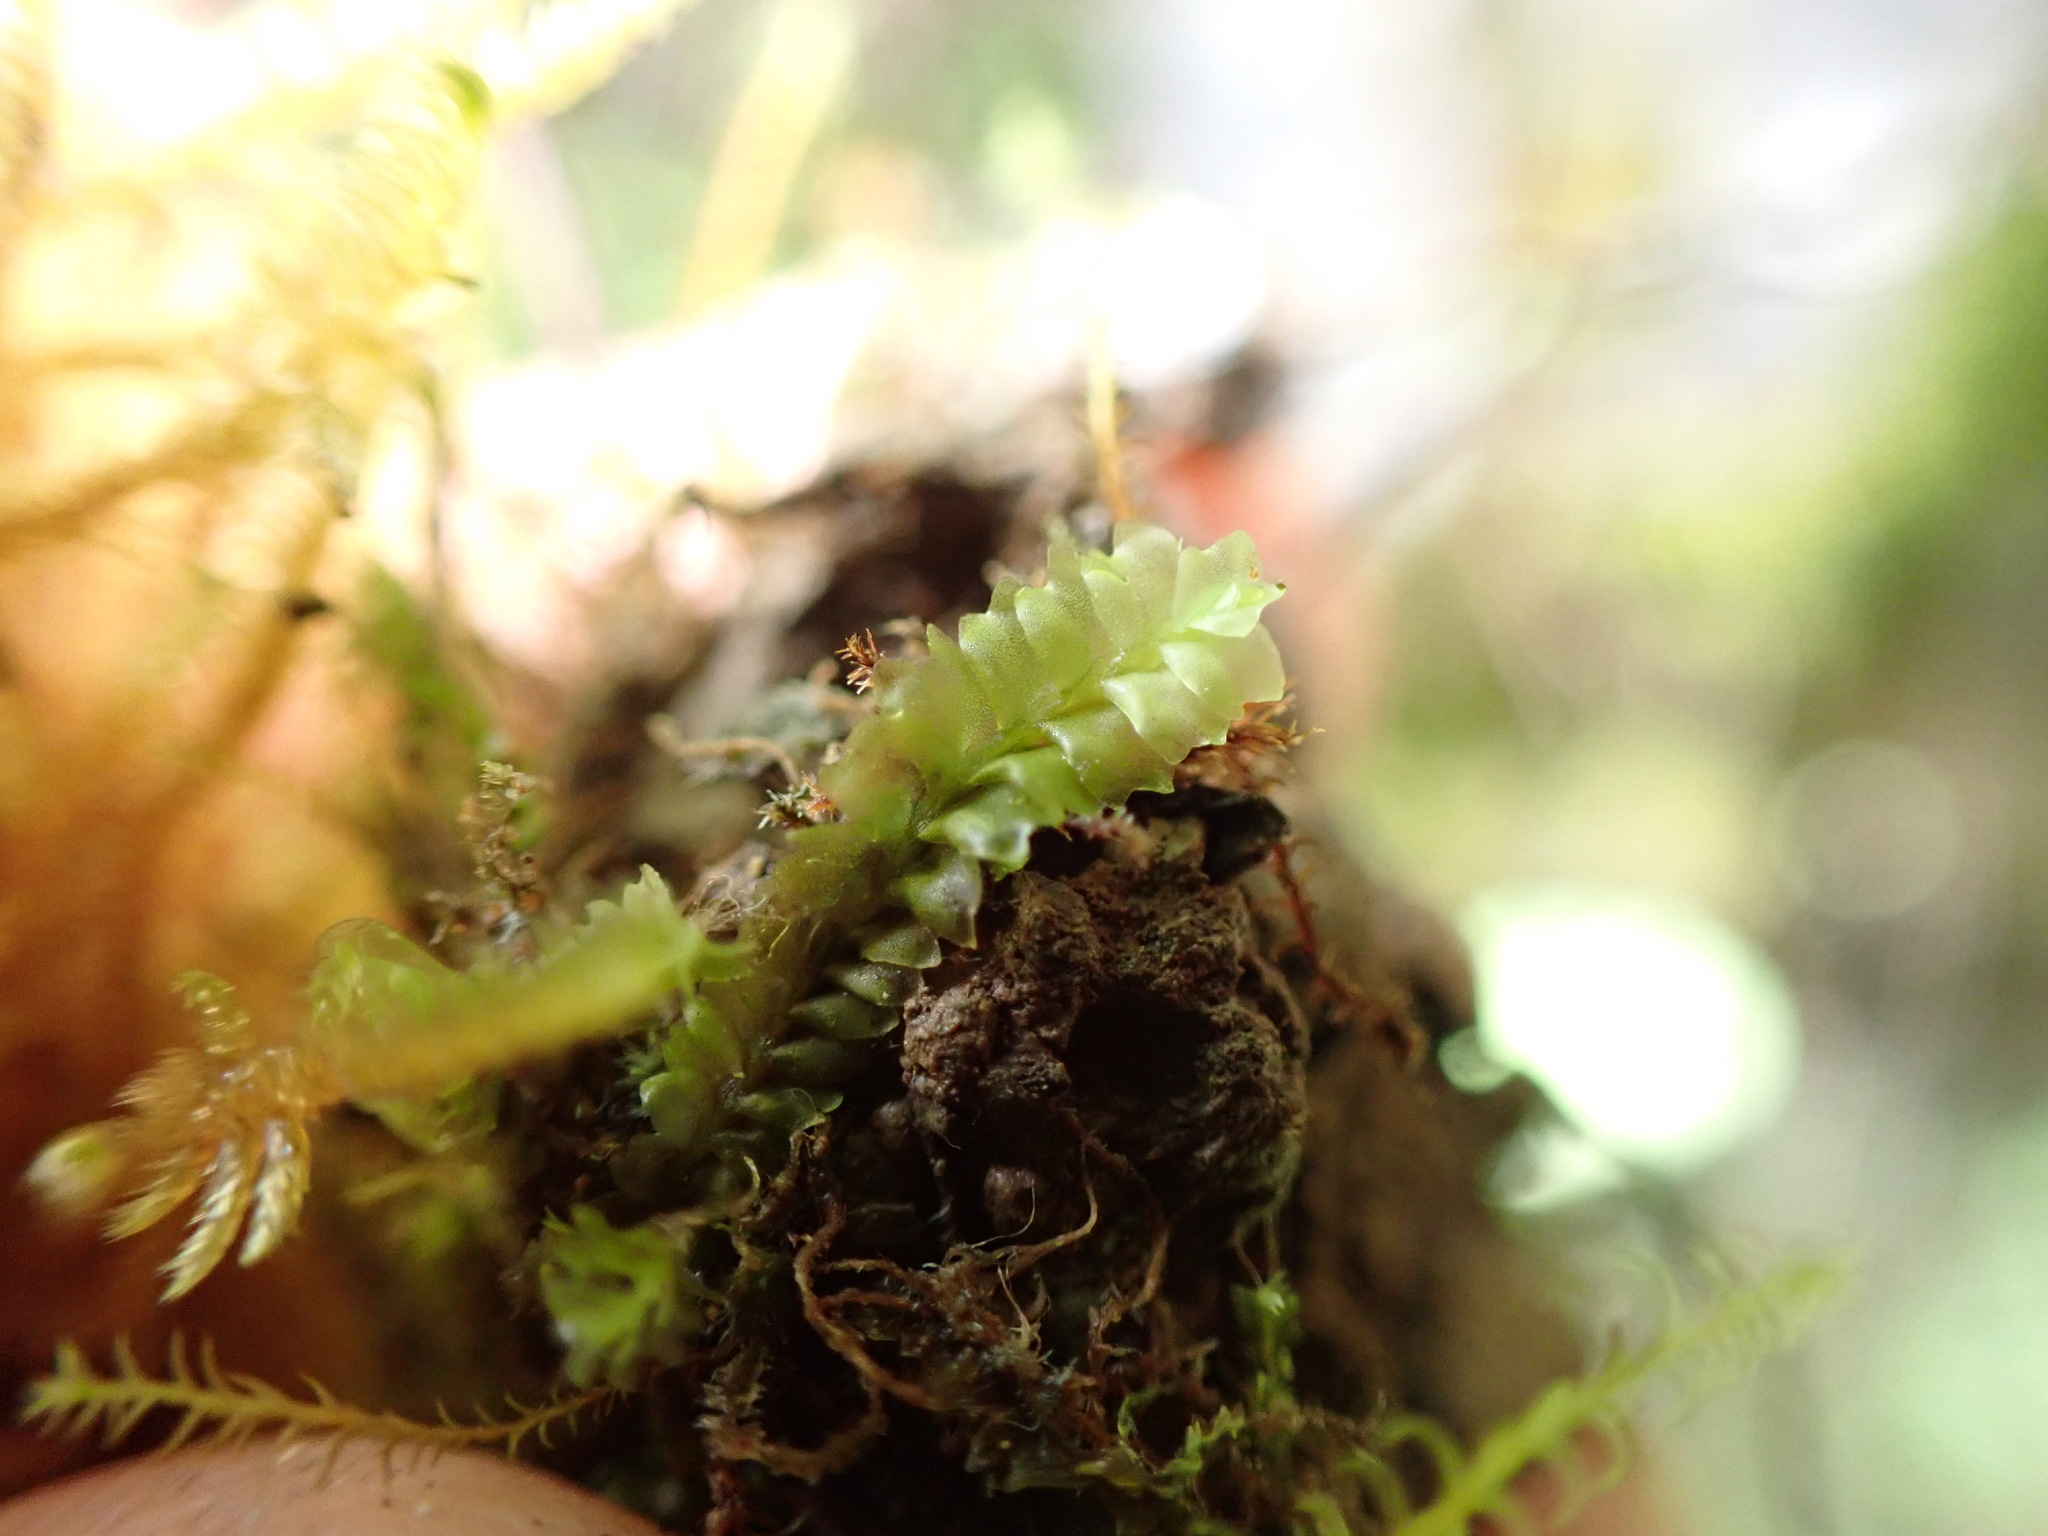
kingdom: Plantae
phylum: Marchantiophyta
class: Jungermanniopsida
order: Jungermanniales
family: Jungermanniaceae
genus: Mesoptychia
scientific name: Mesoptychia gillmanii
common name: Gillman's notchwort
